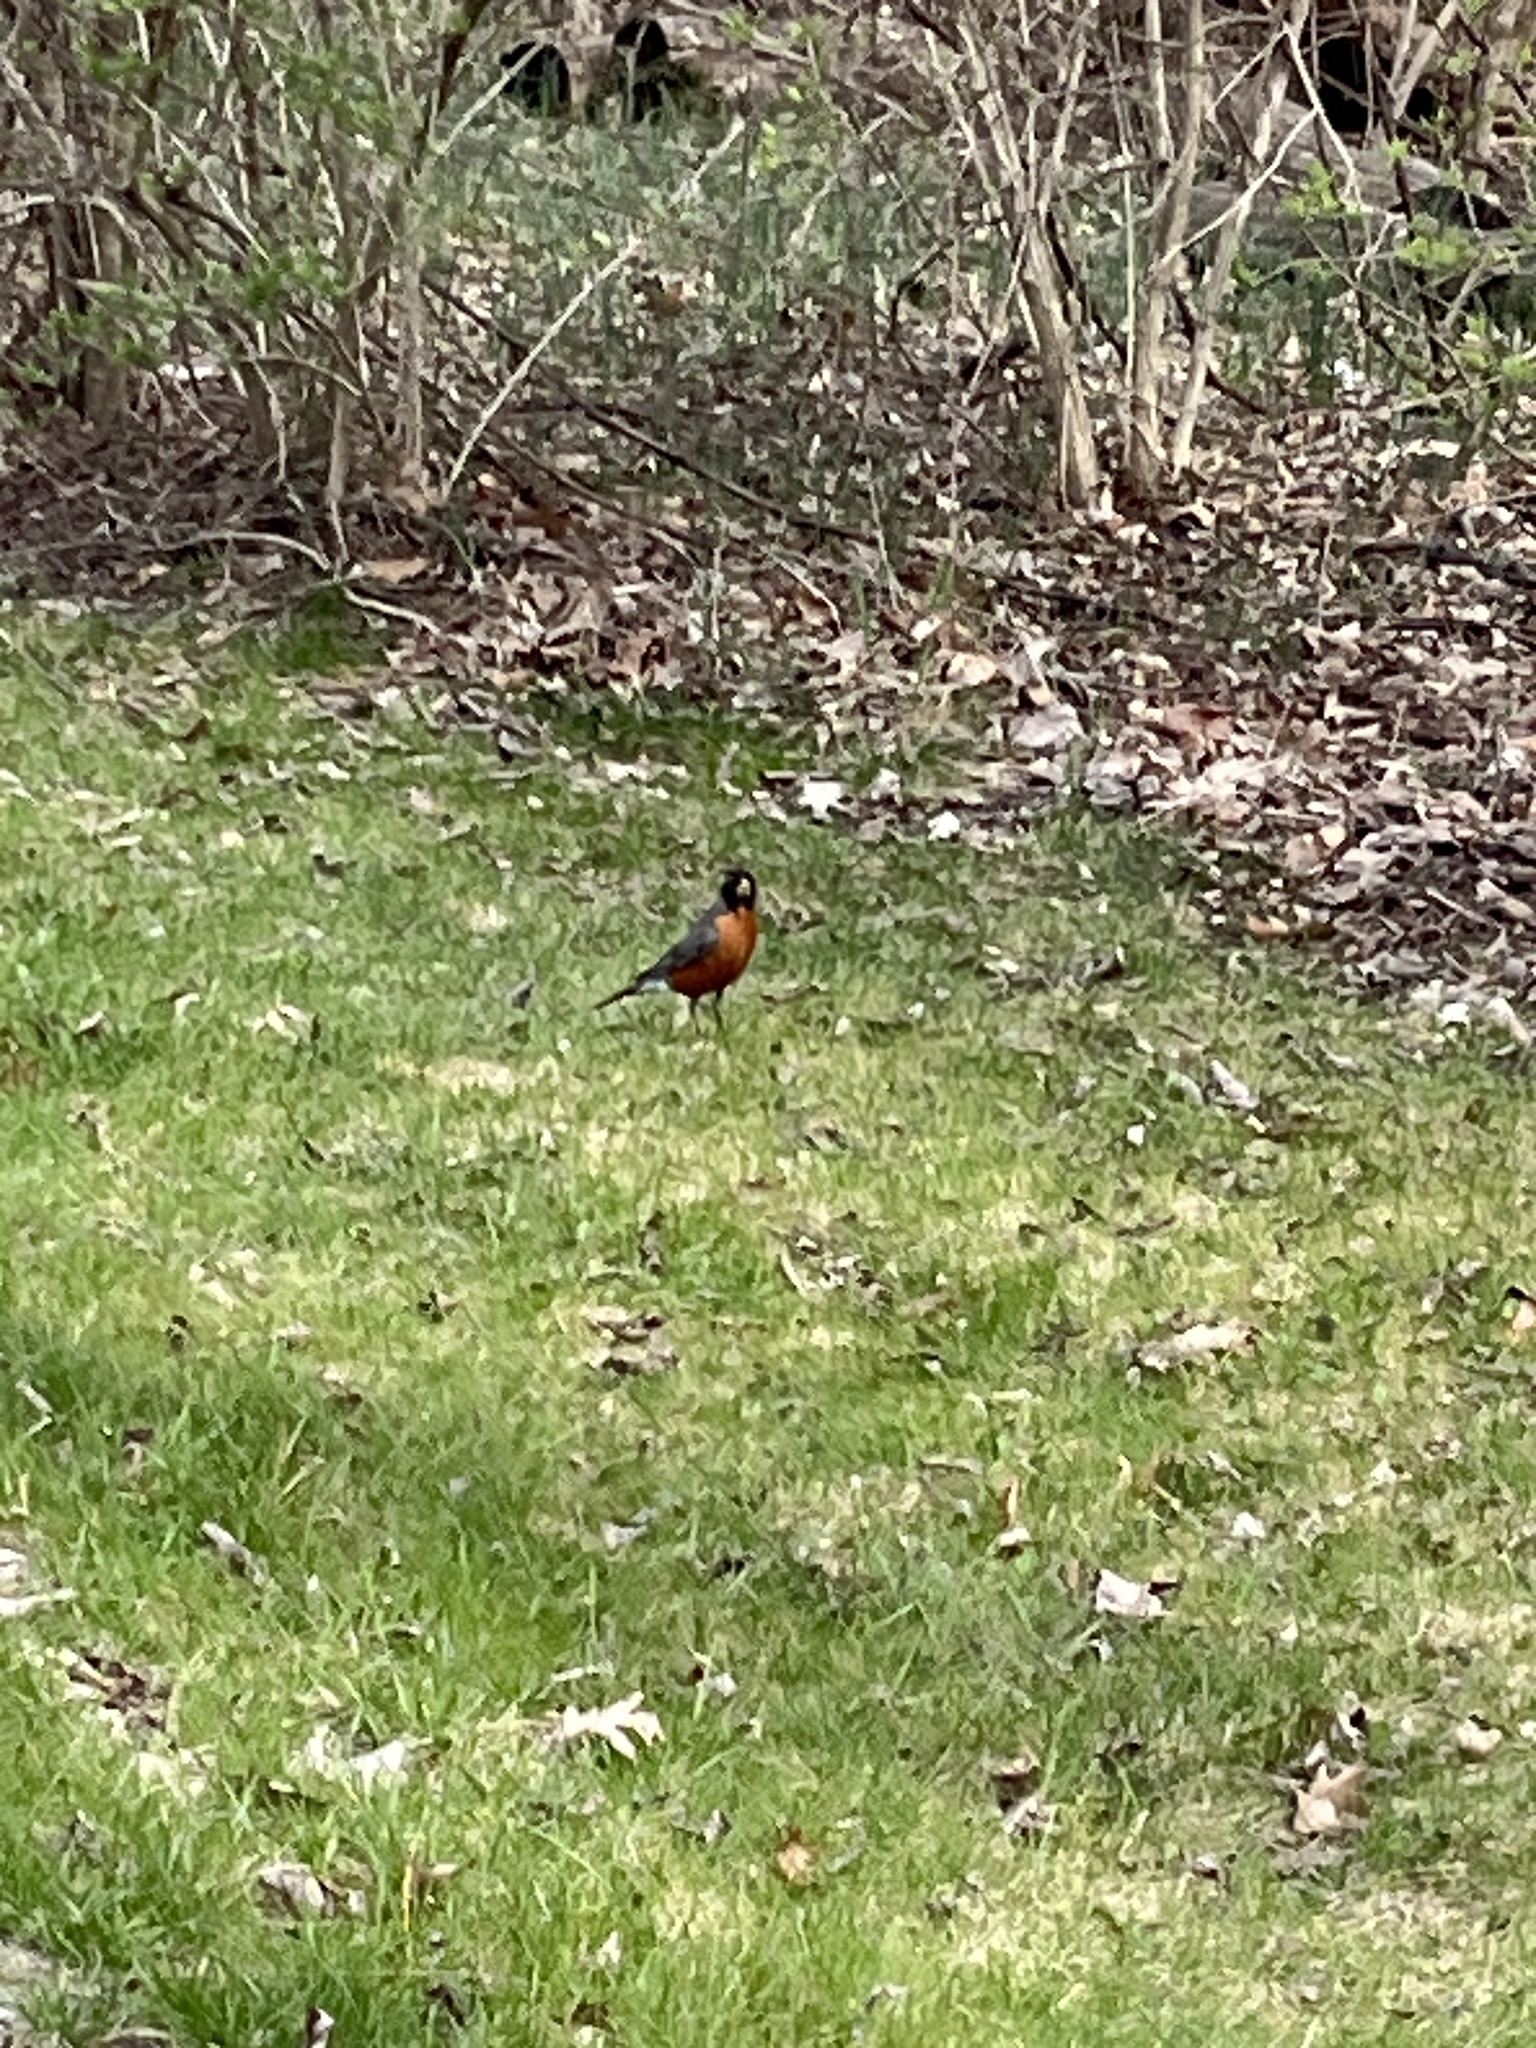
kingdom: Animalia
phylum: Chordata
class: Aves
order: Passeriformes
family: Turdidae
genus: Turdus
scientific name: Turdus migratorius
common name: American robin
